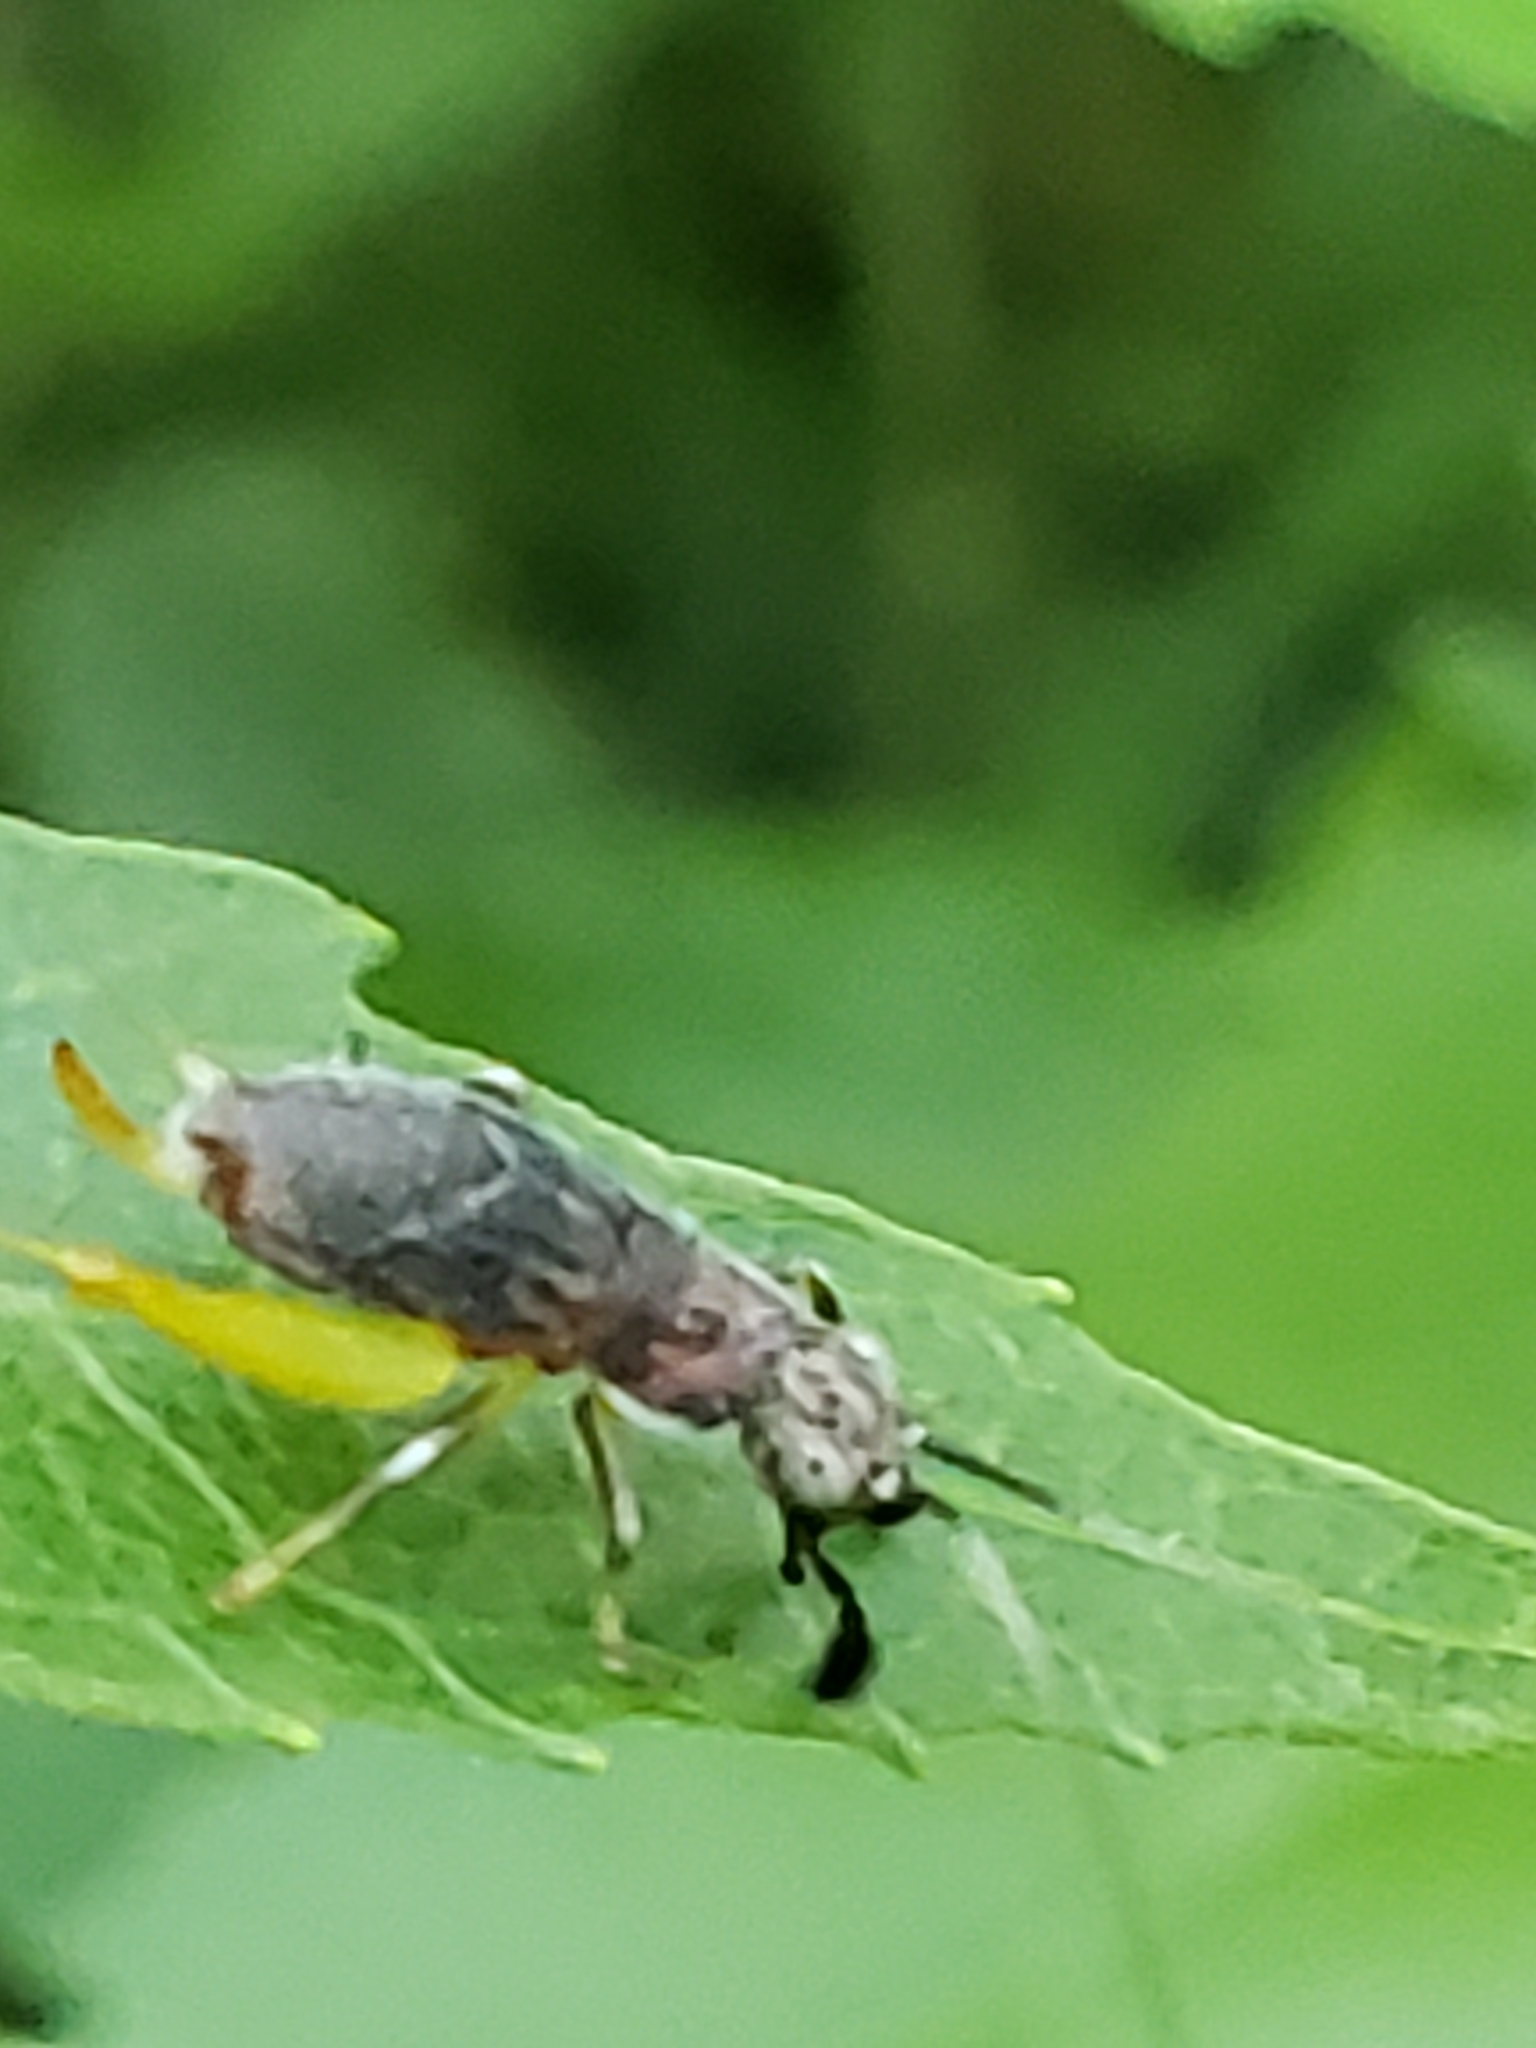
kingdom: Animalia
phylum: Arthropoda
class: Insecta
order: Orthoptera
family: Trigonidiidae
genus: Phyllopalpus
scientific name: Phyllopalpus pulchellus
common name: Handsome trig
